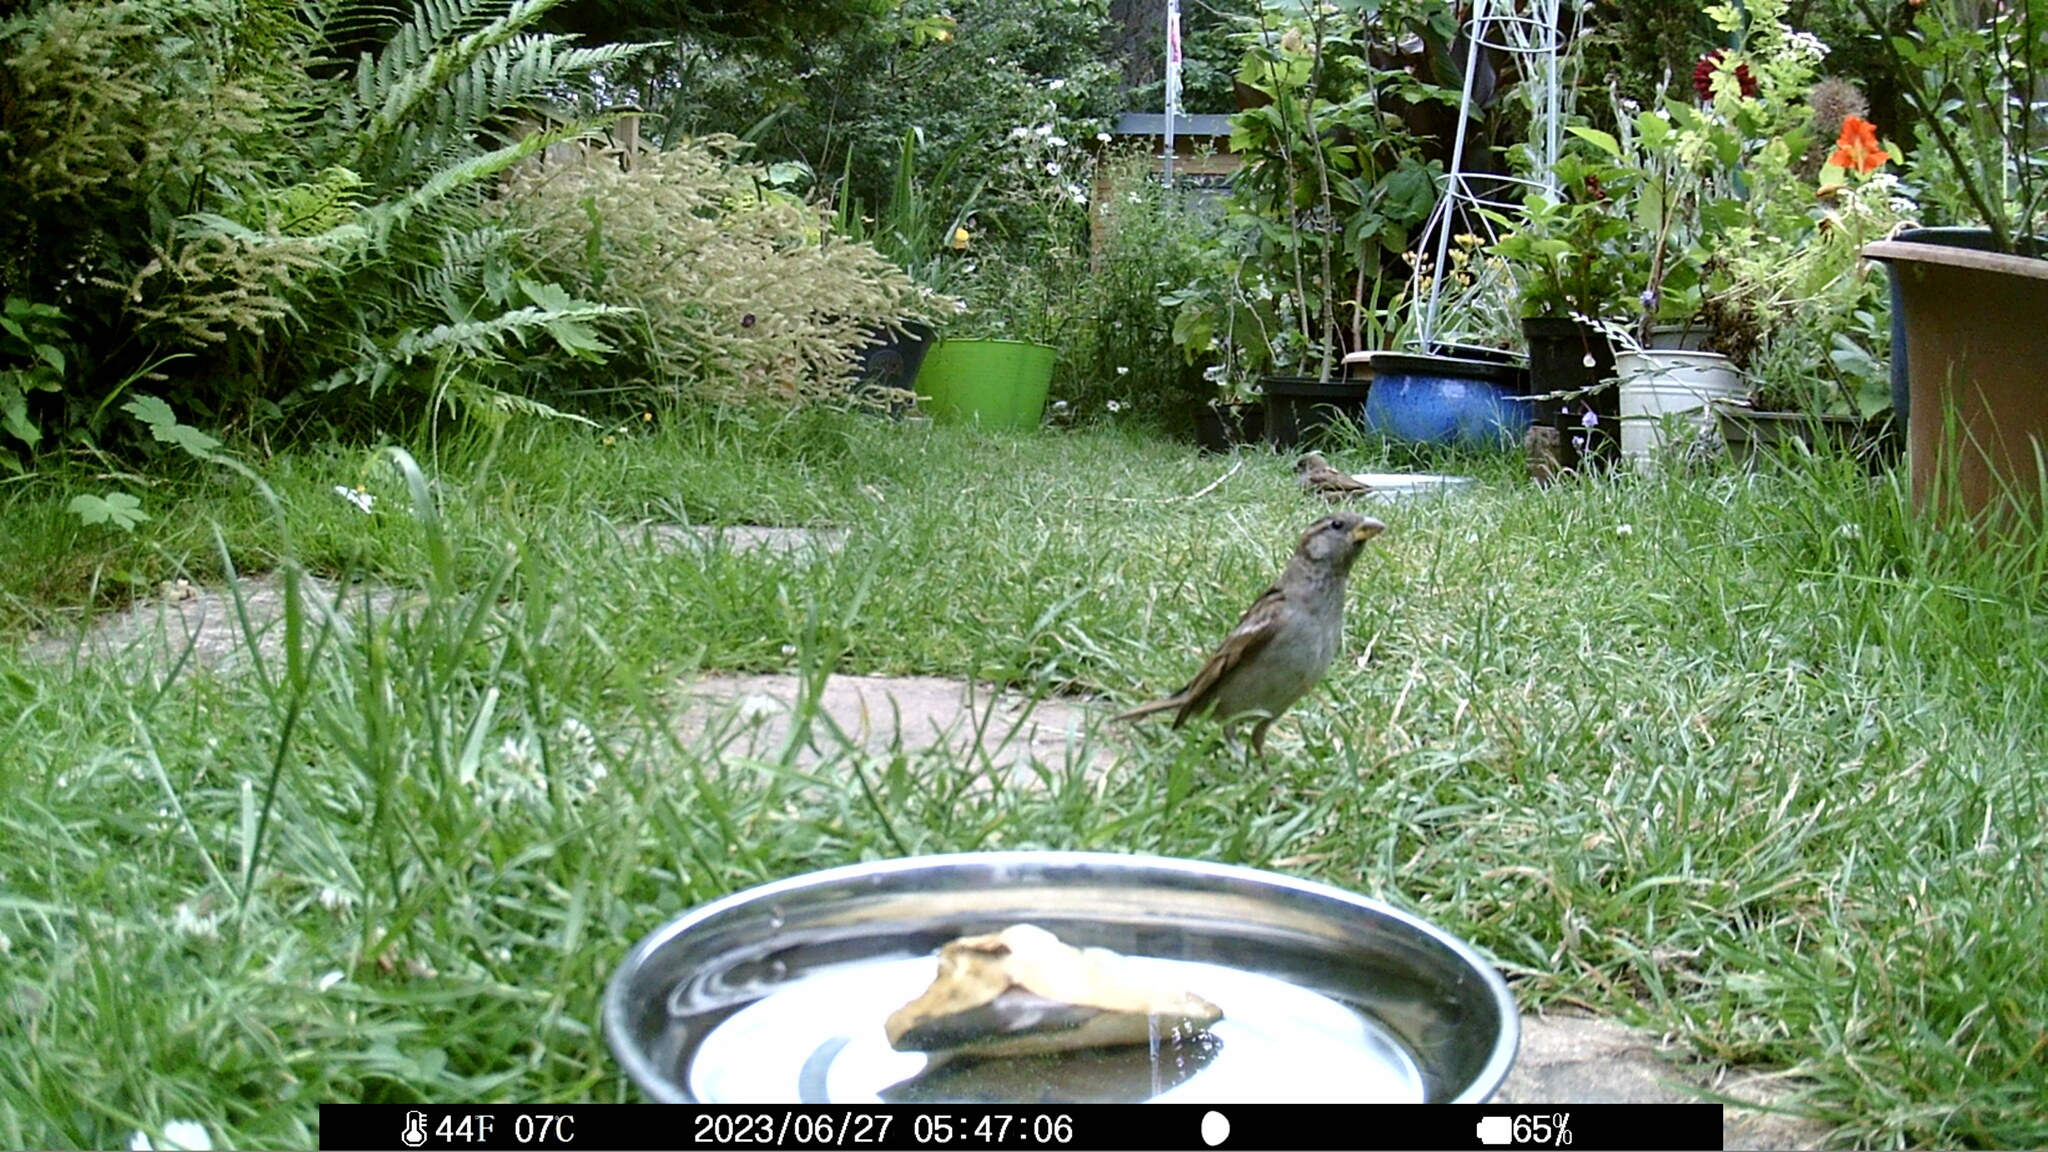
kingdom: Animalia
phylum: Chordata
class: Aves
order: Passeriformes
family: Passeridae
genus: Passer
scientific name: Passer domesticus
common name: House sparrow
